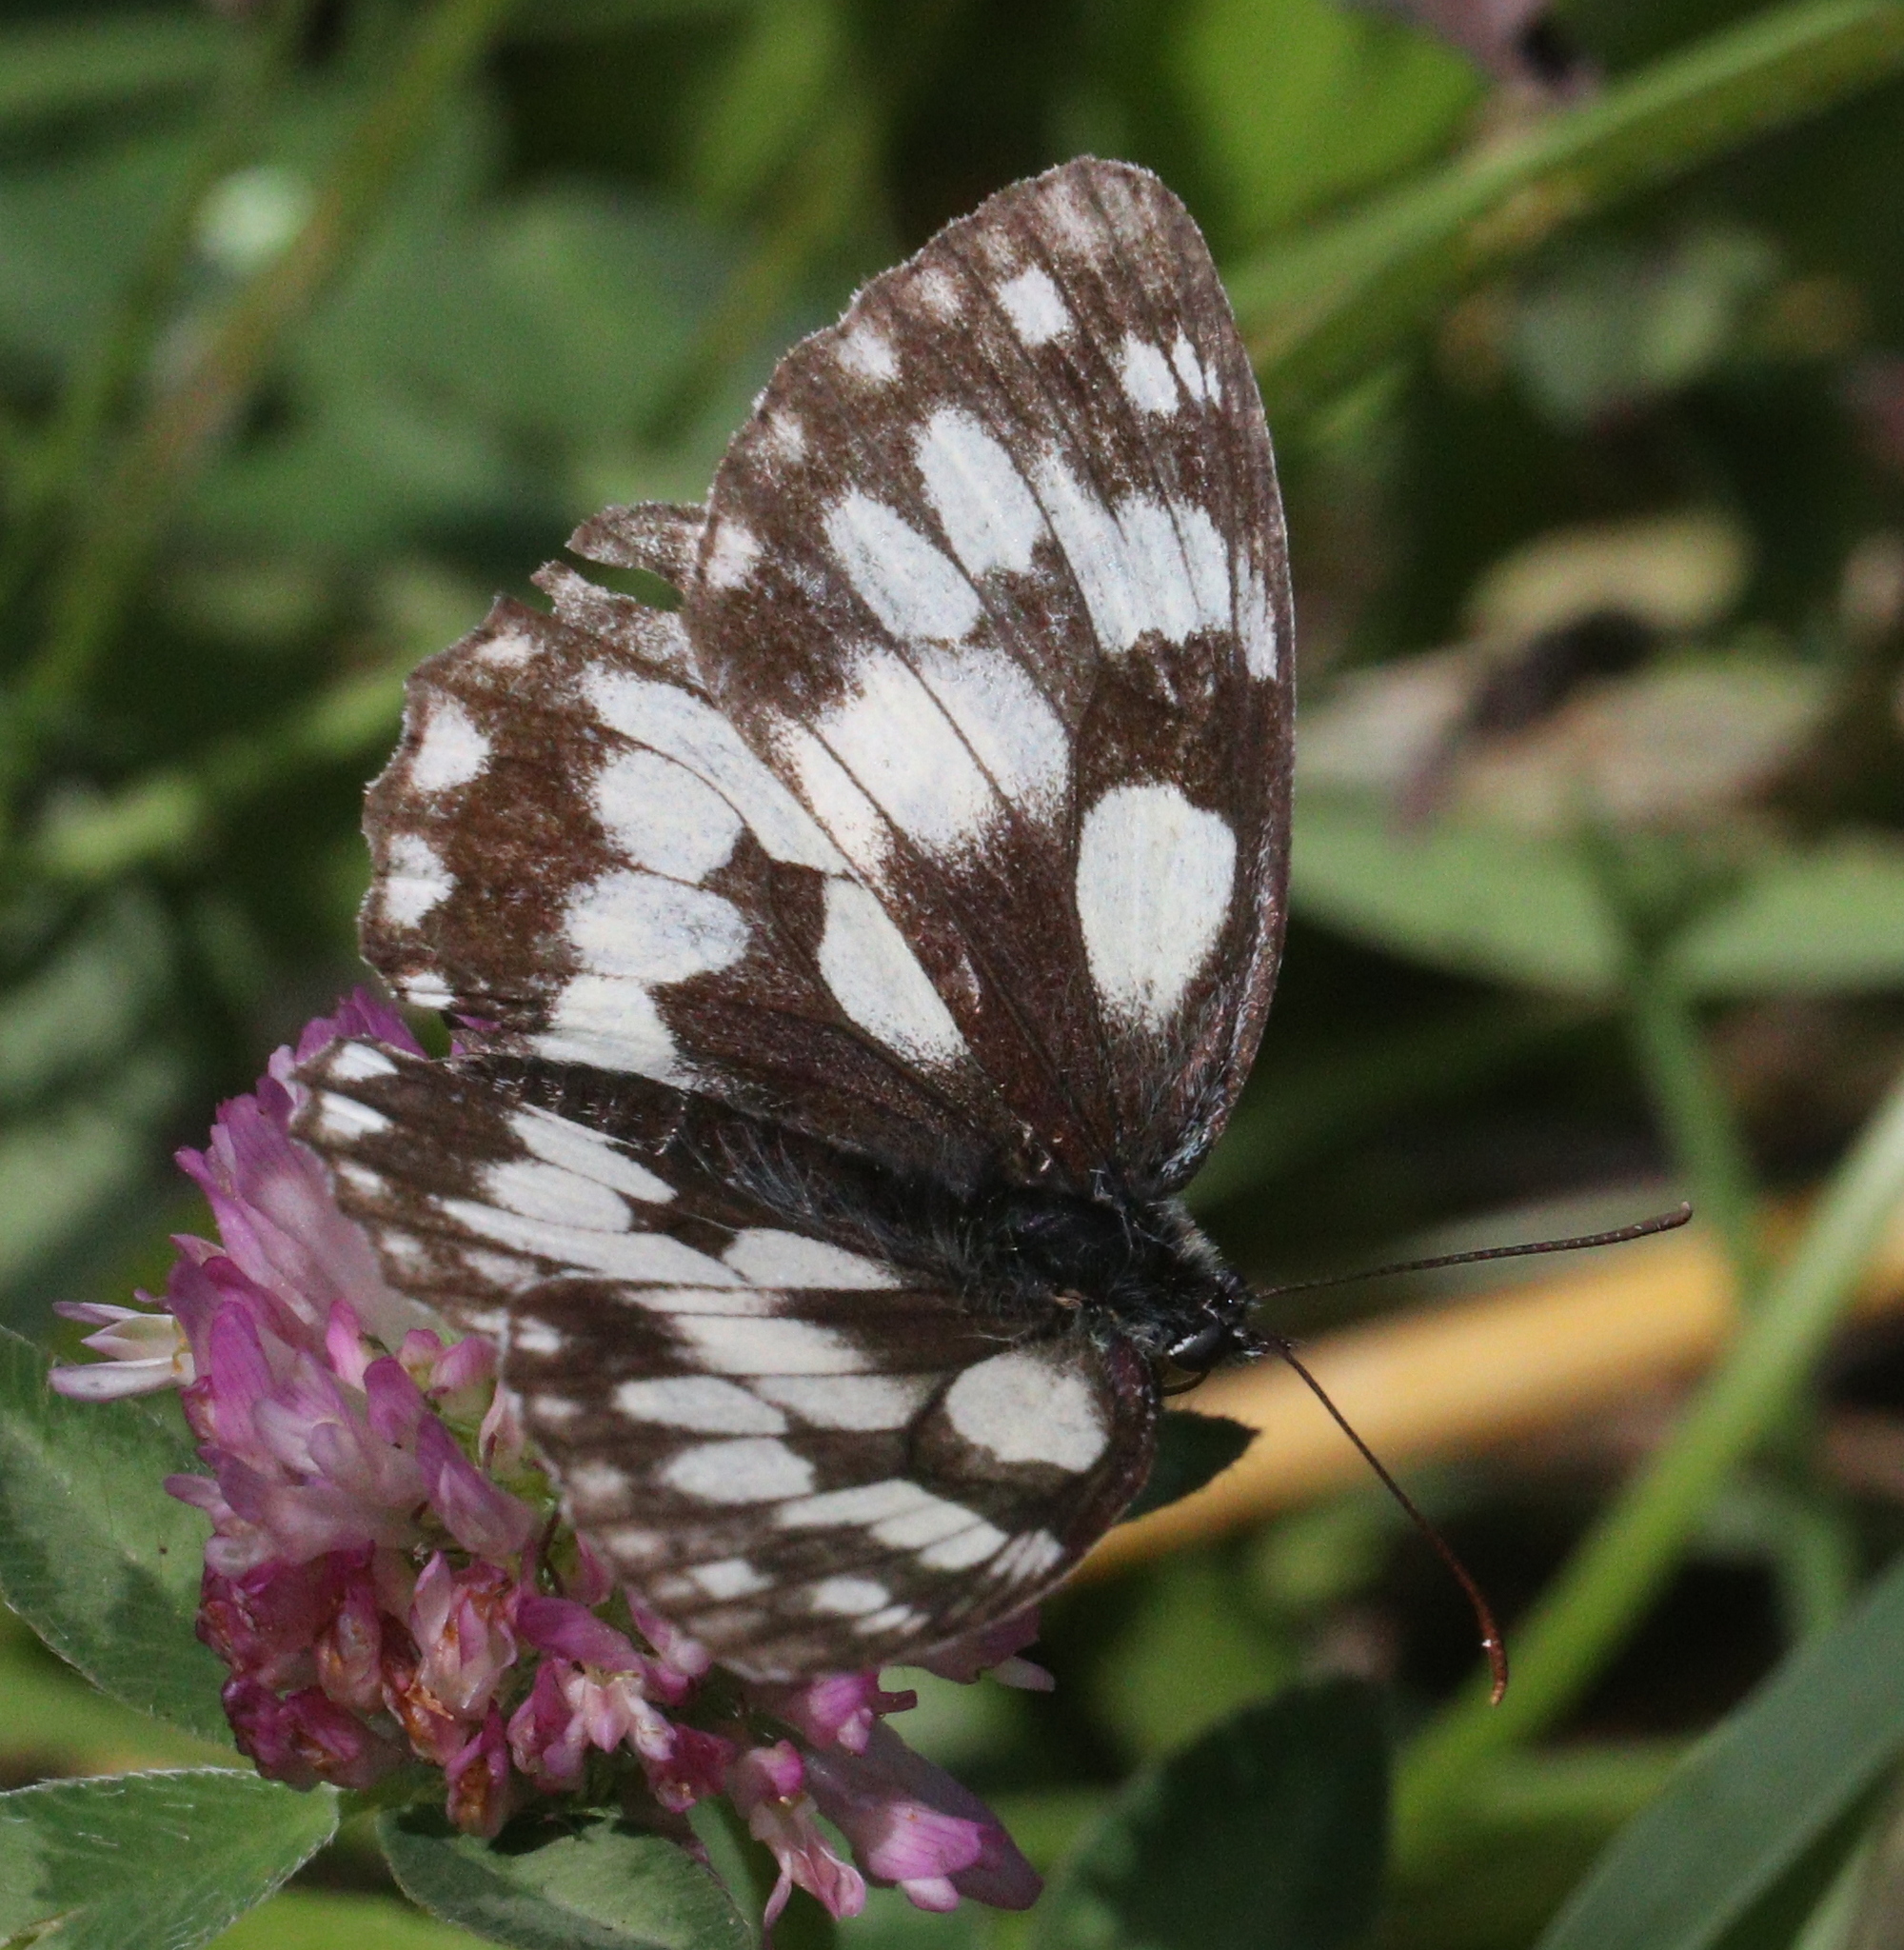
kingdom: Animalia
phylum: Arthropoda
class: Insecta
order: Lepidoptera
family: Nymphalidae
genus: Melanargia
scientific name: Melanargia galathea
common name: Marbled white
